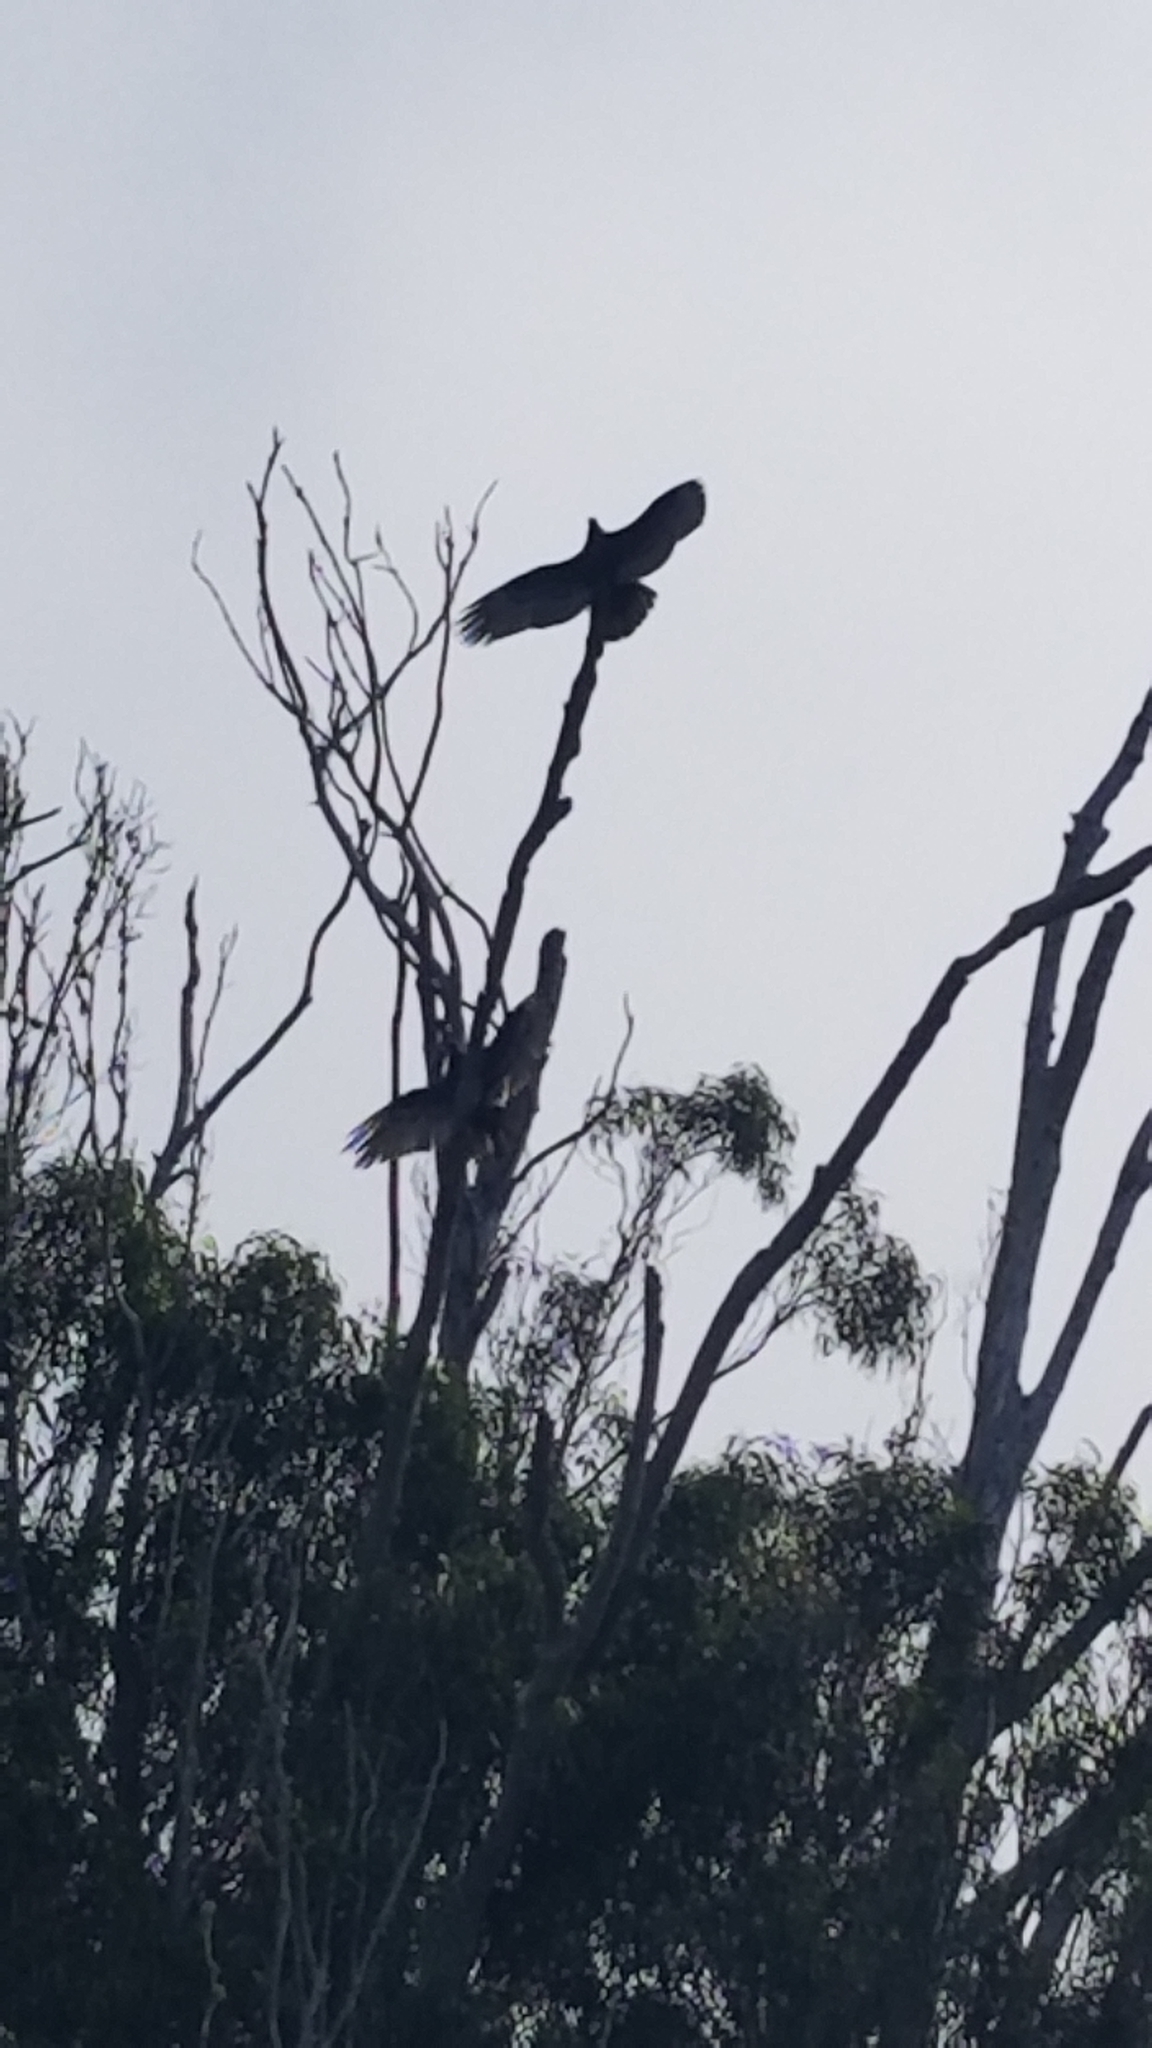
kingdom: Animalia
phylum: Chordata
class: Aves
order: Accipitriformes
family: Cathartidae
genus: Cathartes
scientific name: Cathartes aura
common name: Turkey vulture
